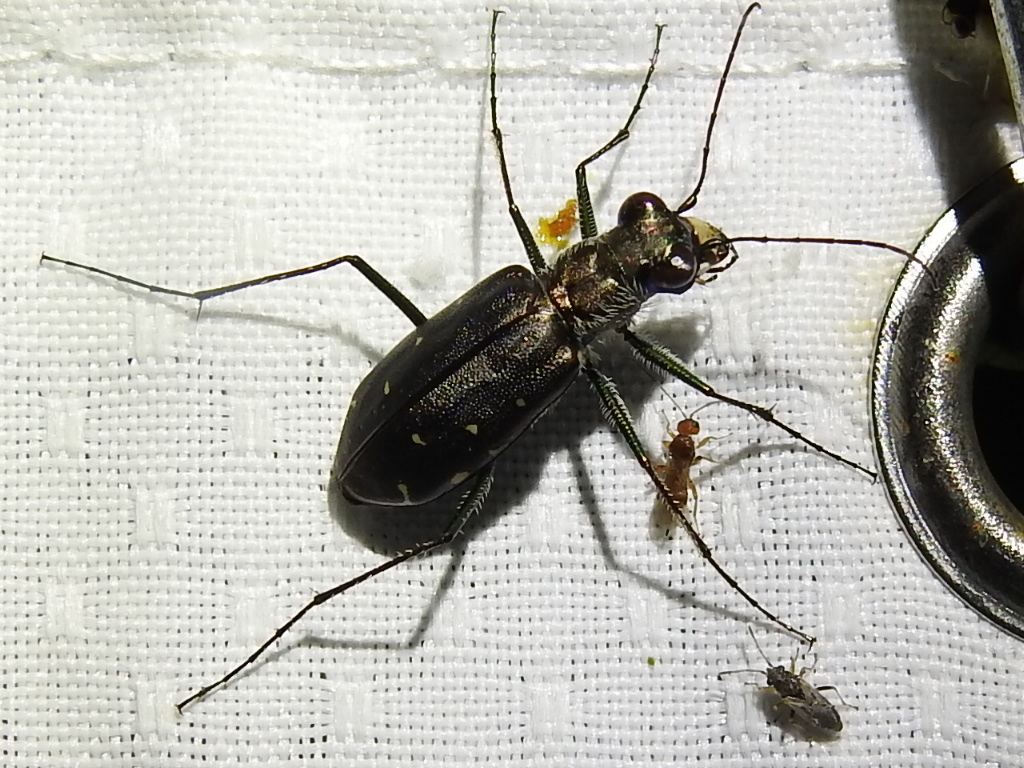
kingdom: Animalia
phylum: Arthropoda
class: Insecta
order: Coleoptera
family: Carabidae
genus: Cicindela
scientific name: Cicindela punctulata
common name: Punctured tiger beetle
